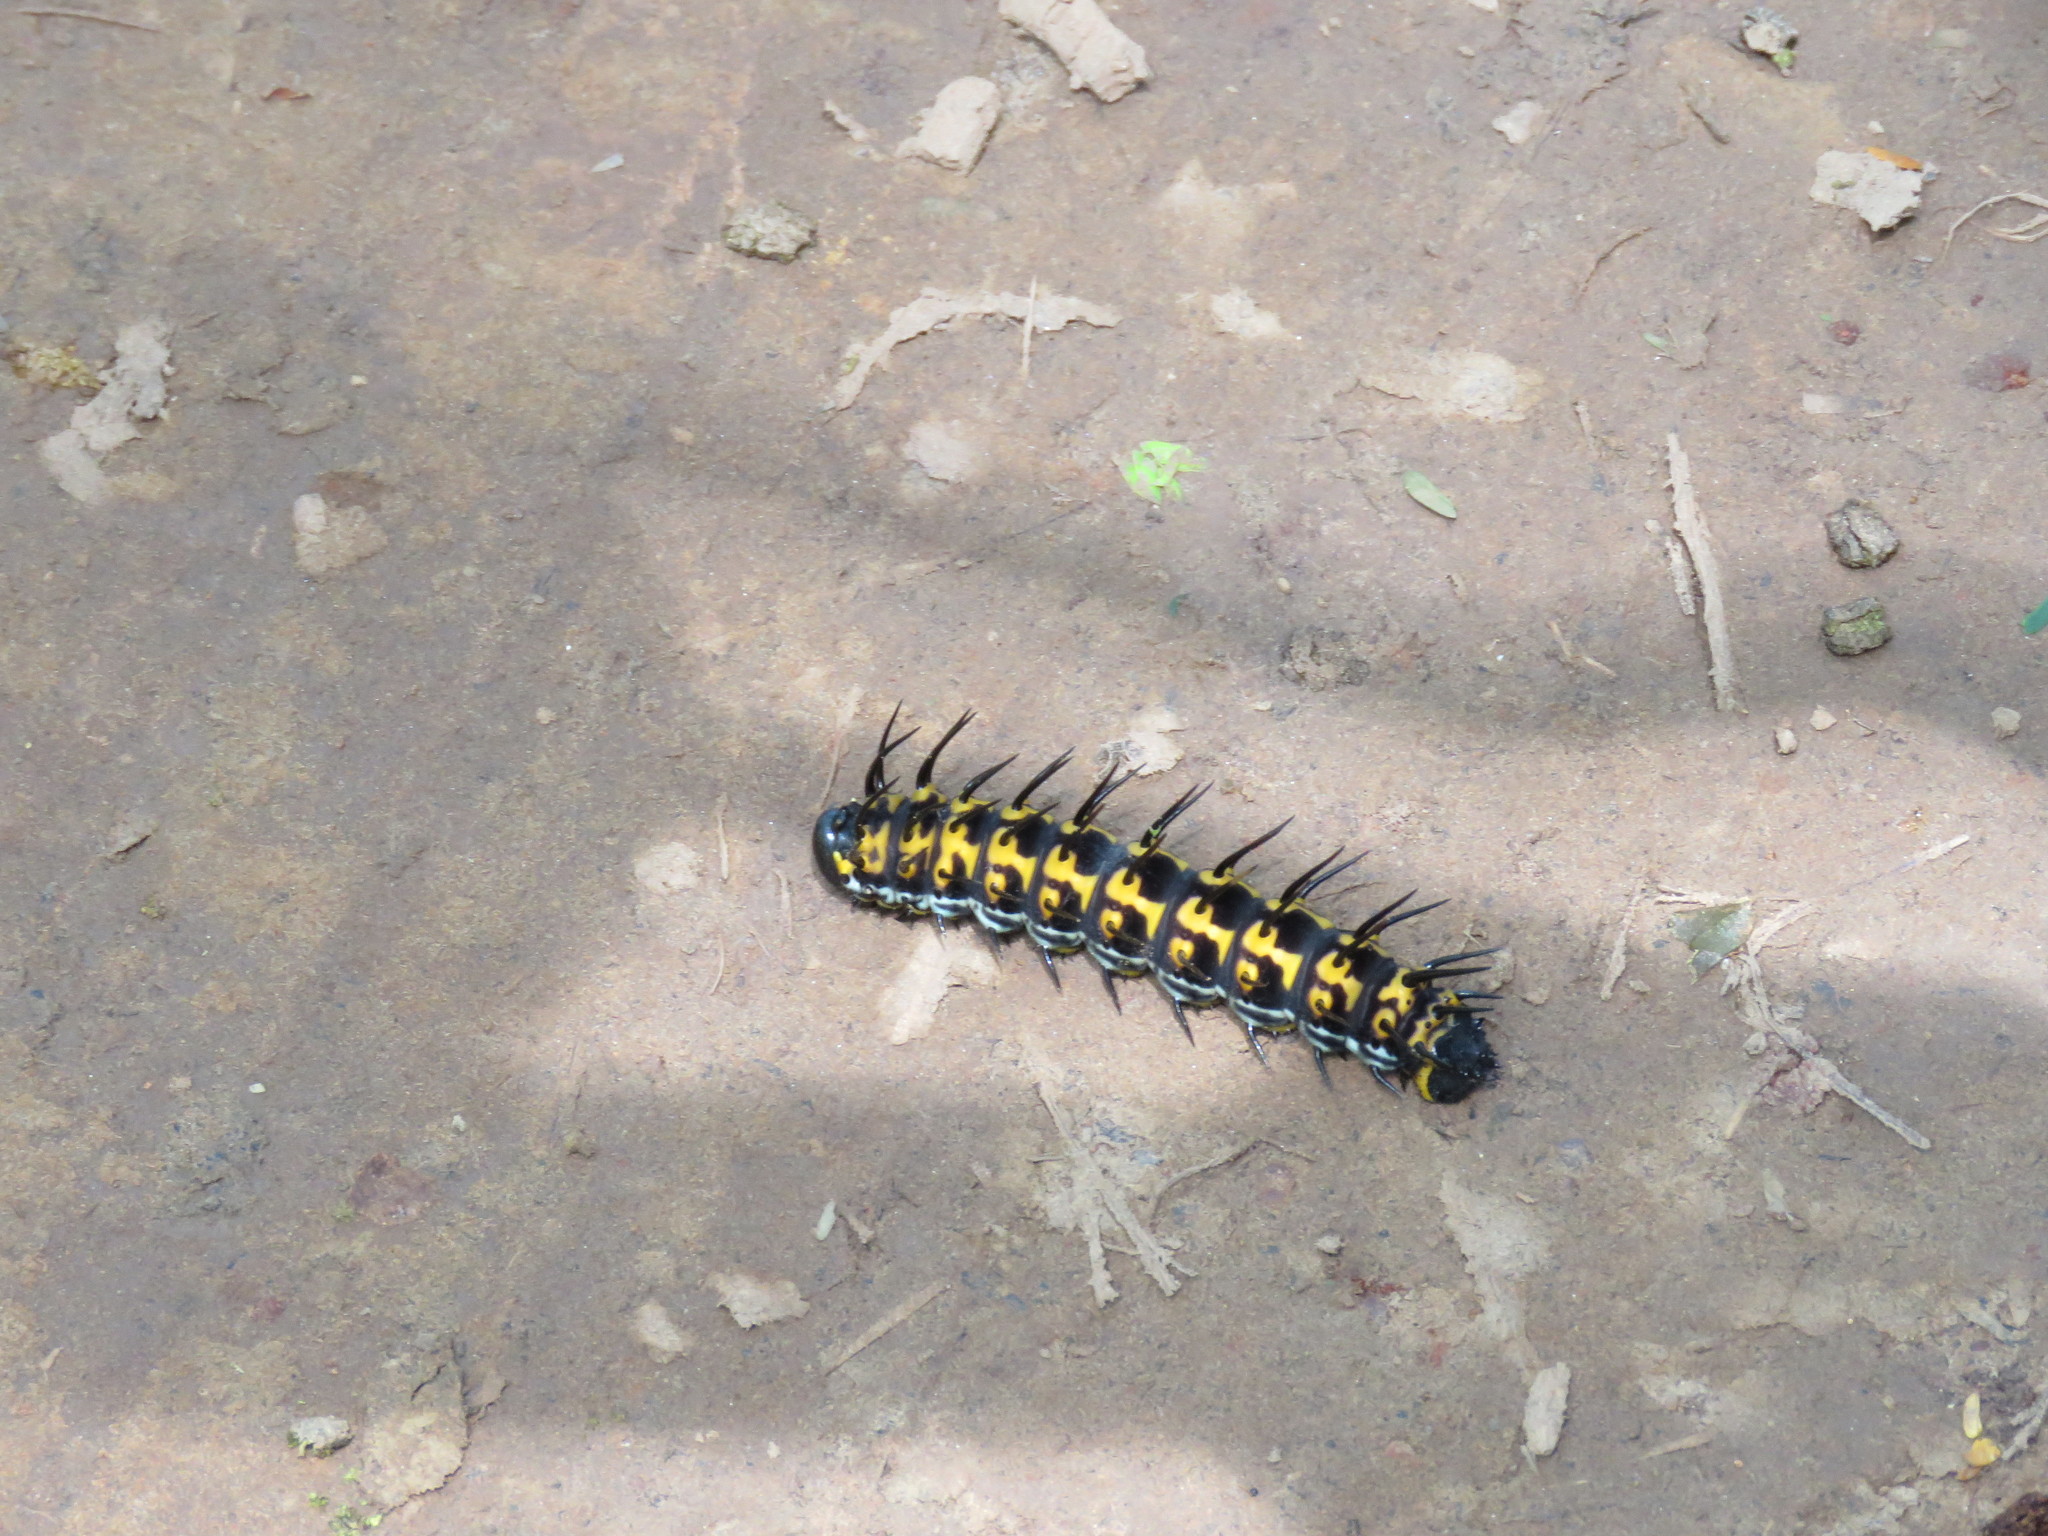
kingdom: Animalia
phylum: Arthropoda
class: Insecta
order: Lepidoptera
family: Saturniidae
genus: Citioica
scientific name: Citioica anthonilis
